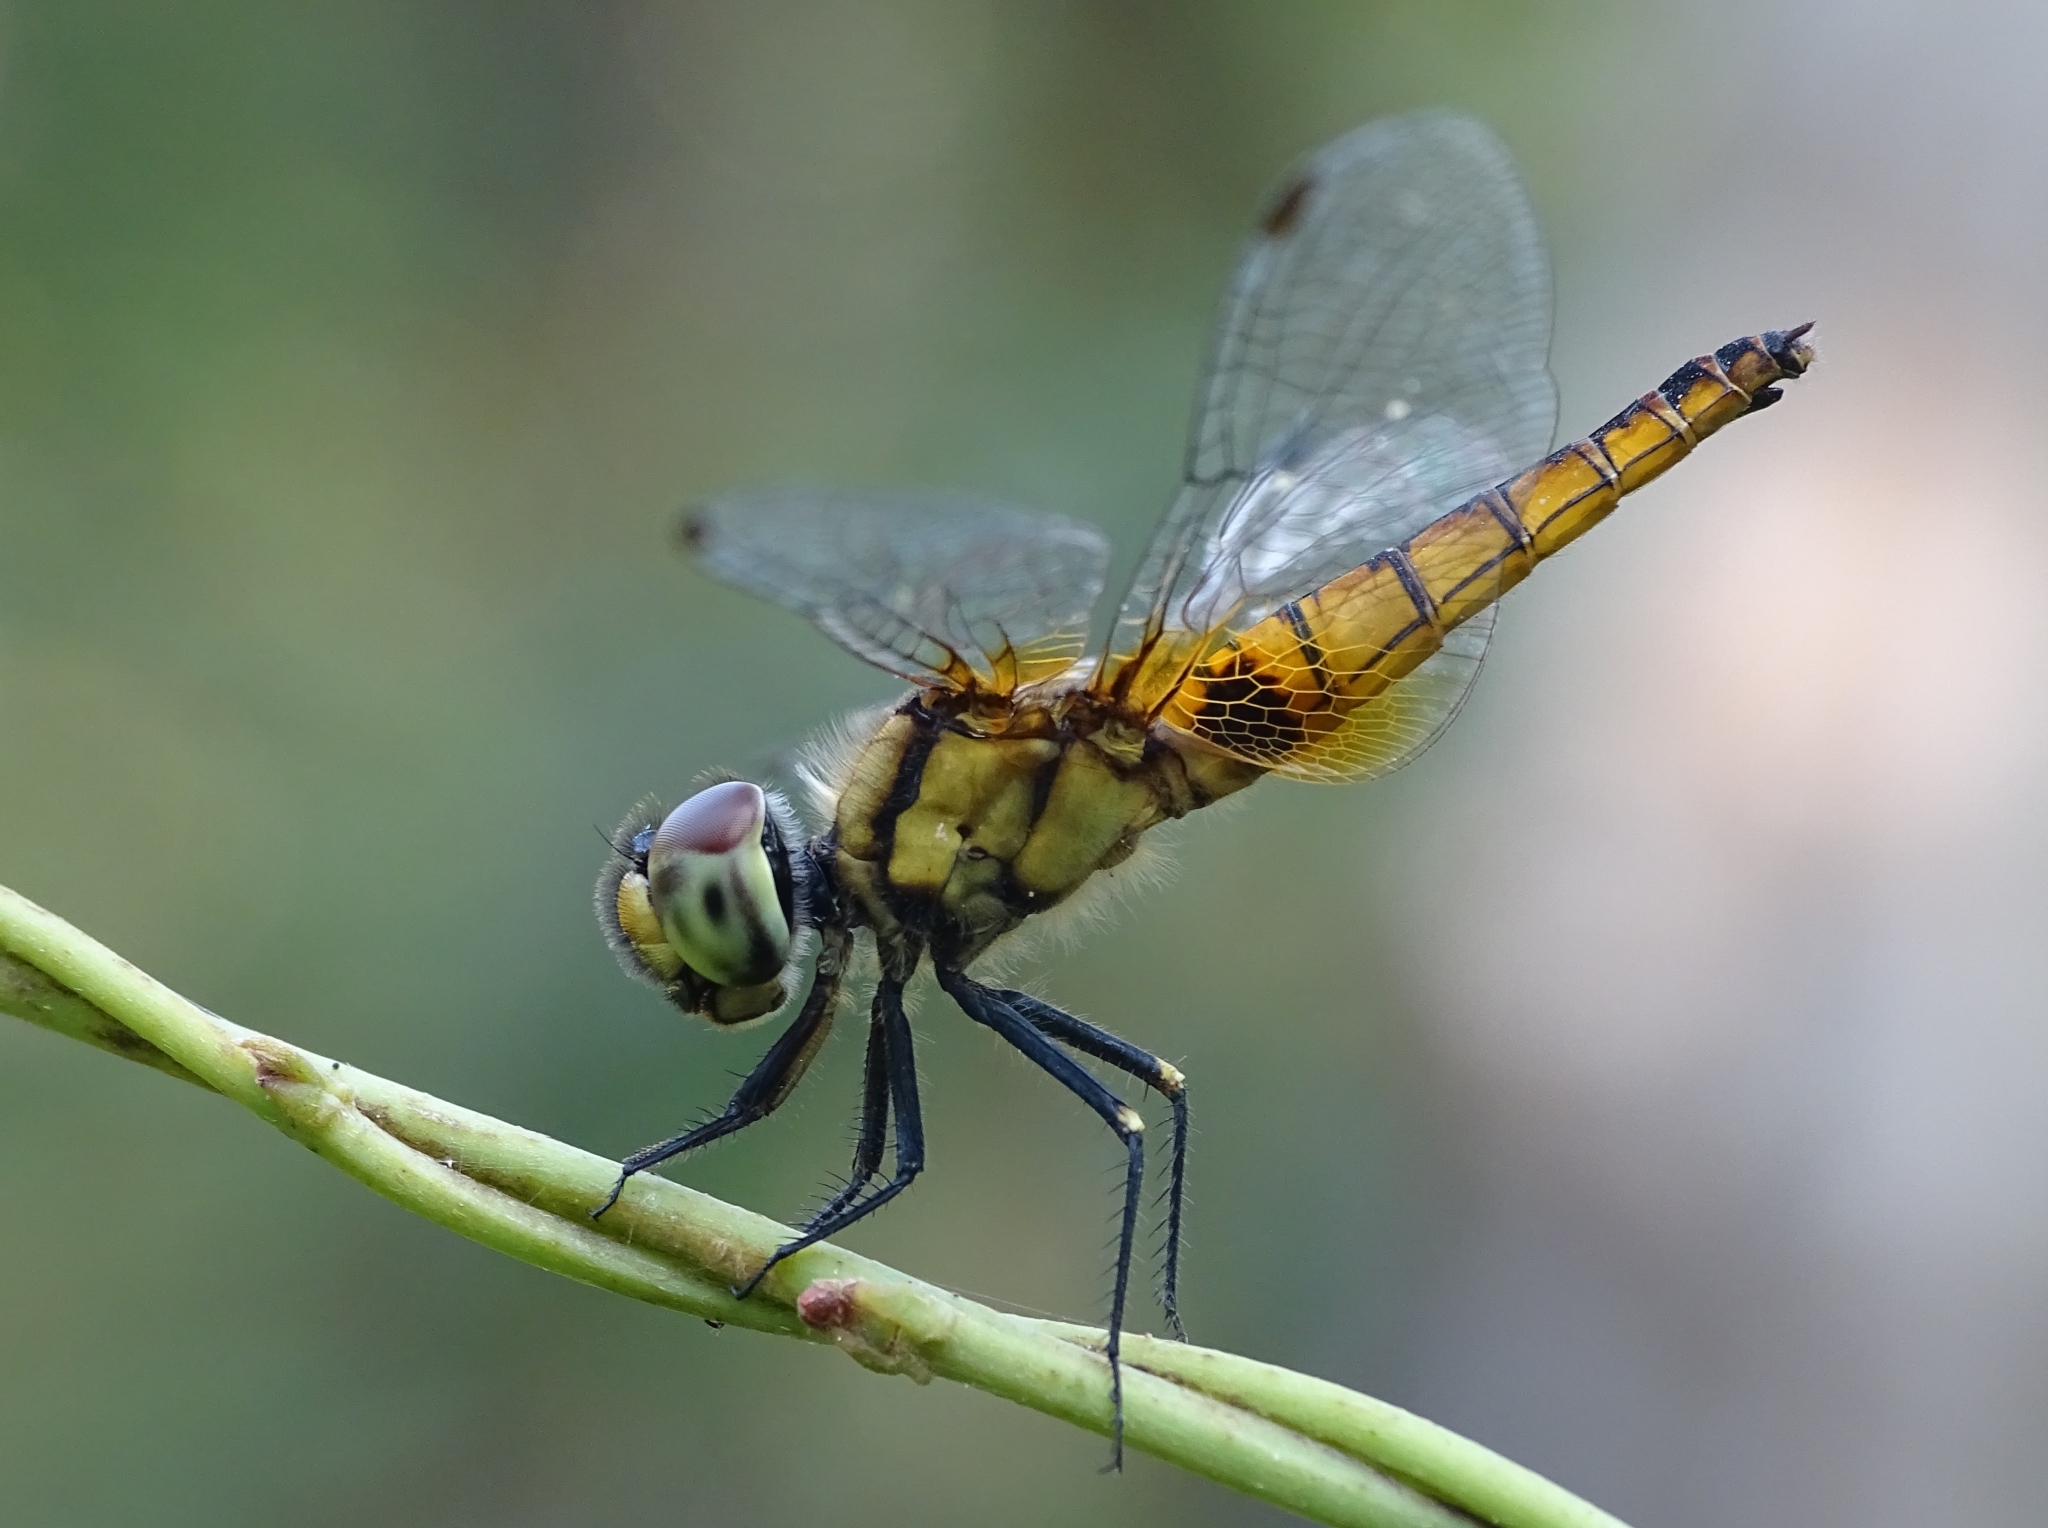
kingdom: Animalia
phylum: Arthropoda
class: Insecta
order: Odonata
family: Libellulidae
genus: Aethriamanta
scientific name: Aethriamanta brevipennis
